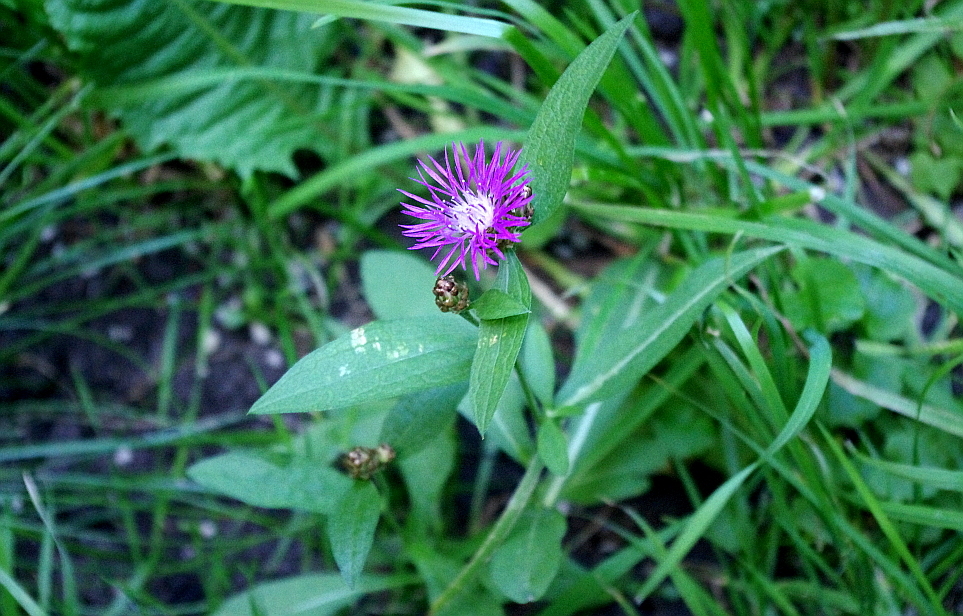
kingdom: Plantae
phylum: Tracheophyta
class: Magnoliopsida
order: Asterales
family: Asteraceae
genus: Centaurea
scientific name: Centaurea jacea
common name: Brown knapweed
